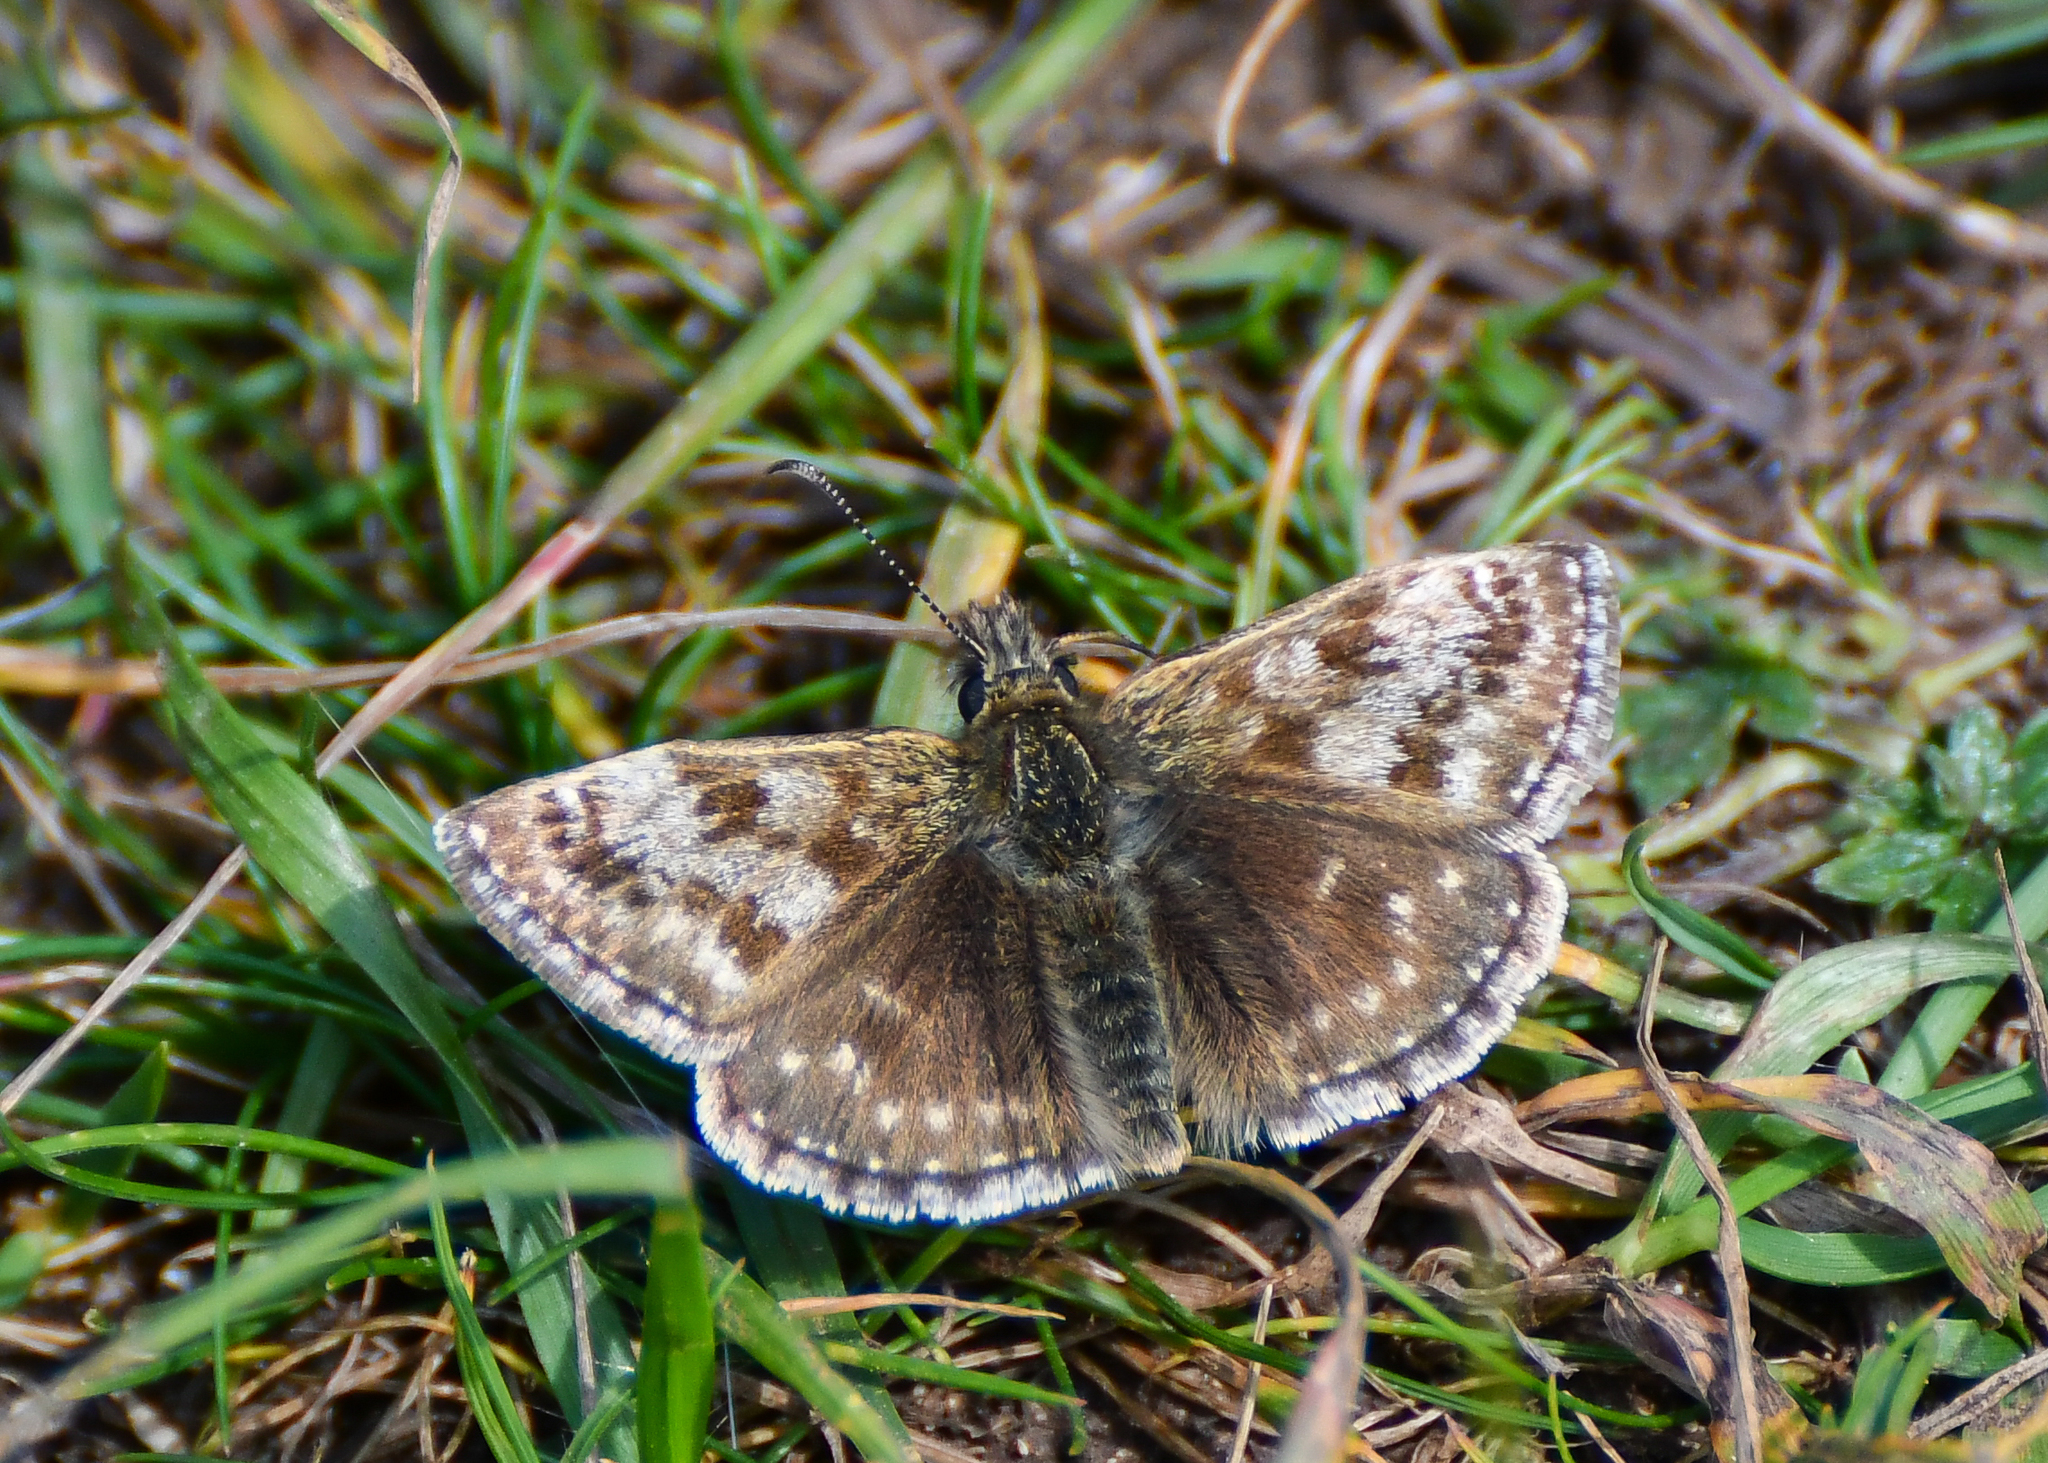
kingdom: Animalia
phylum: Arthropoda
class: Insecta
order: Lepidoptera
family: Hesperiidae
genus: Erynnis
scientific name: Erynnis tages
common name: Dingy skipper
